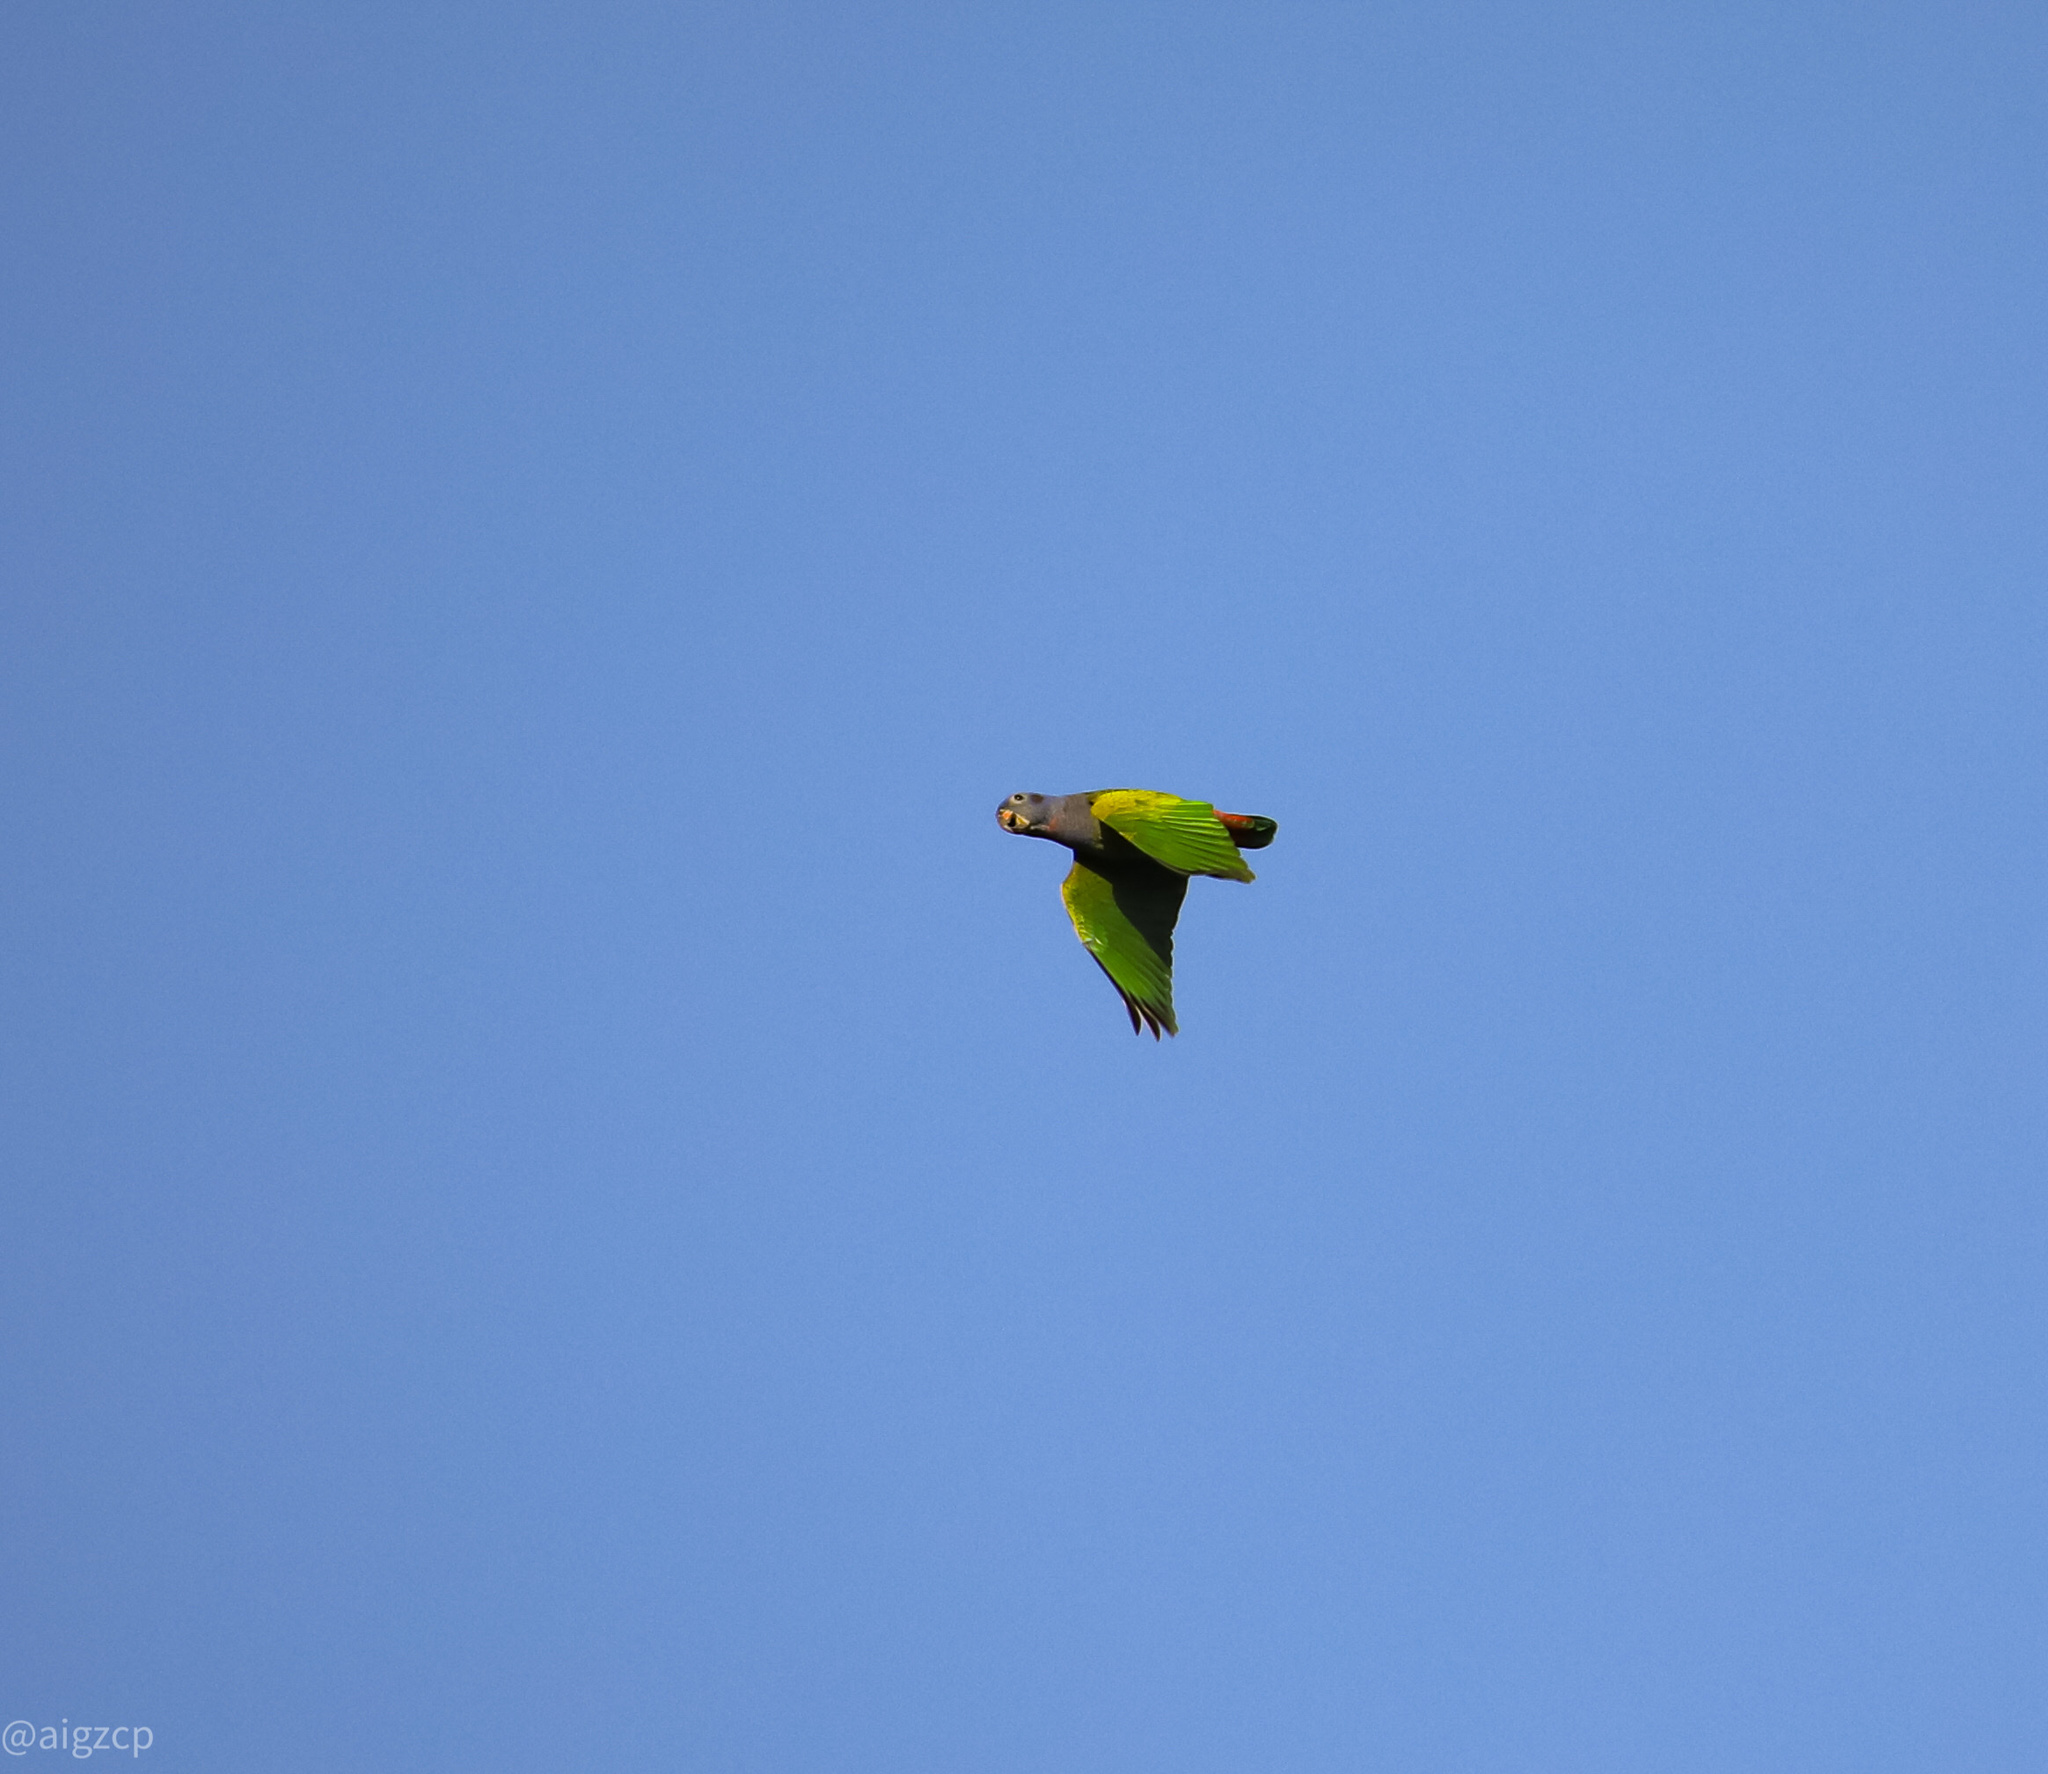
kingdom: Animalia
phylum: Chordata
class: Aves
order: Psittaciformes
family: Psittacidae
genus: Pionus
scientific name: Pionus menstruus
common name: Blue-headed parrot
